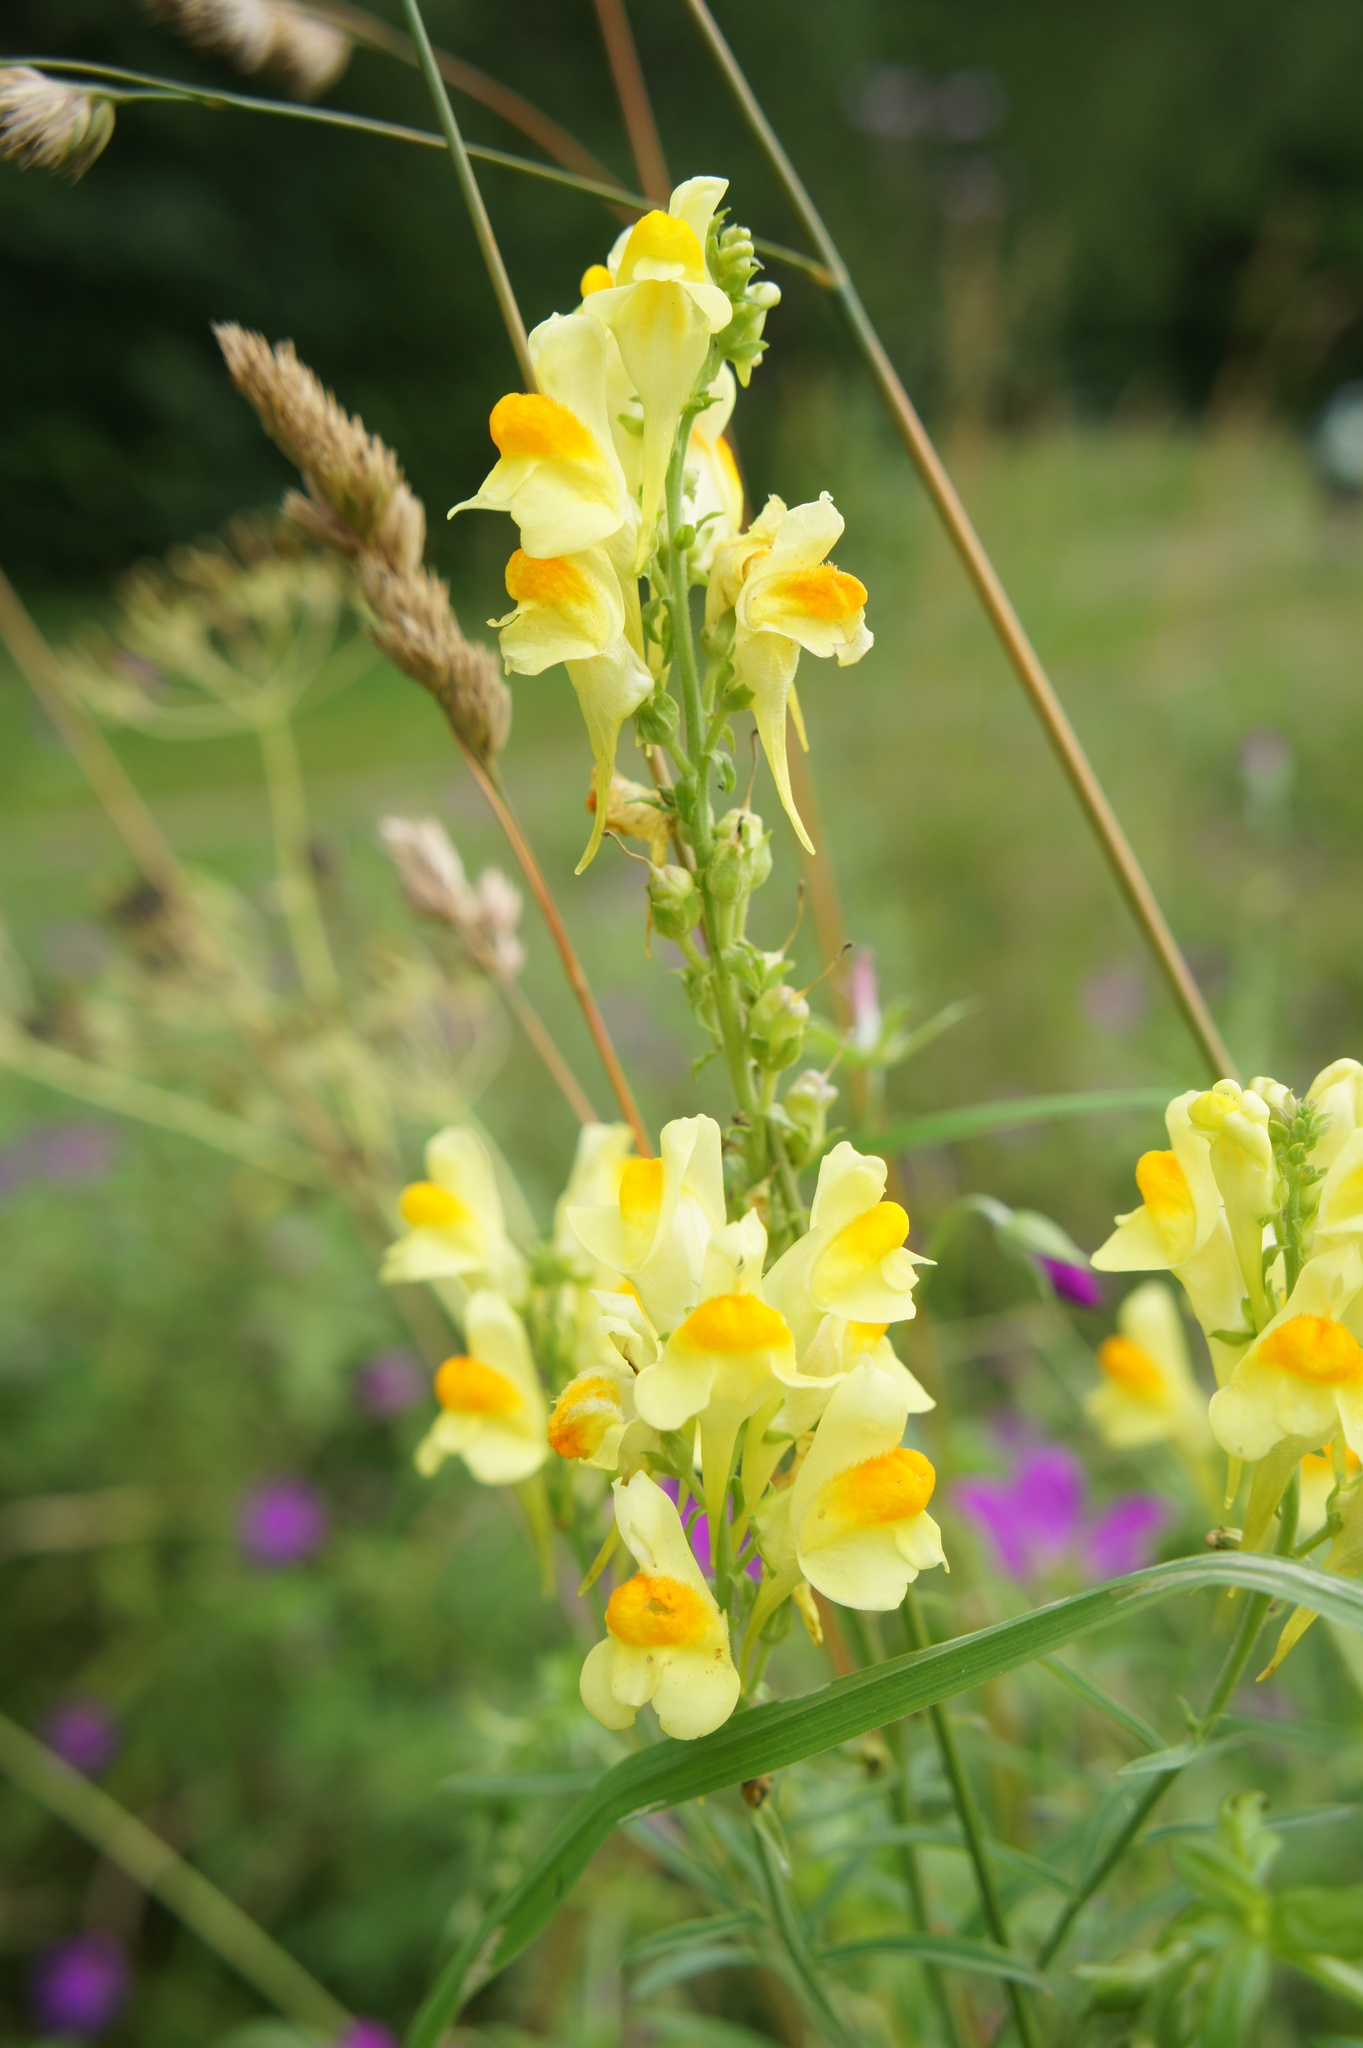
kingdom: Plantae
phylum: Tracheophyta
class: Magnoliopsida
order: Lamiales
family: Plantaginaceae
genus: Linaria
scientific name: Linaria vulgaris
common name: Butter and eggs
